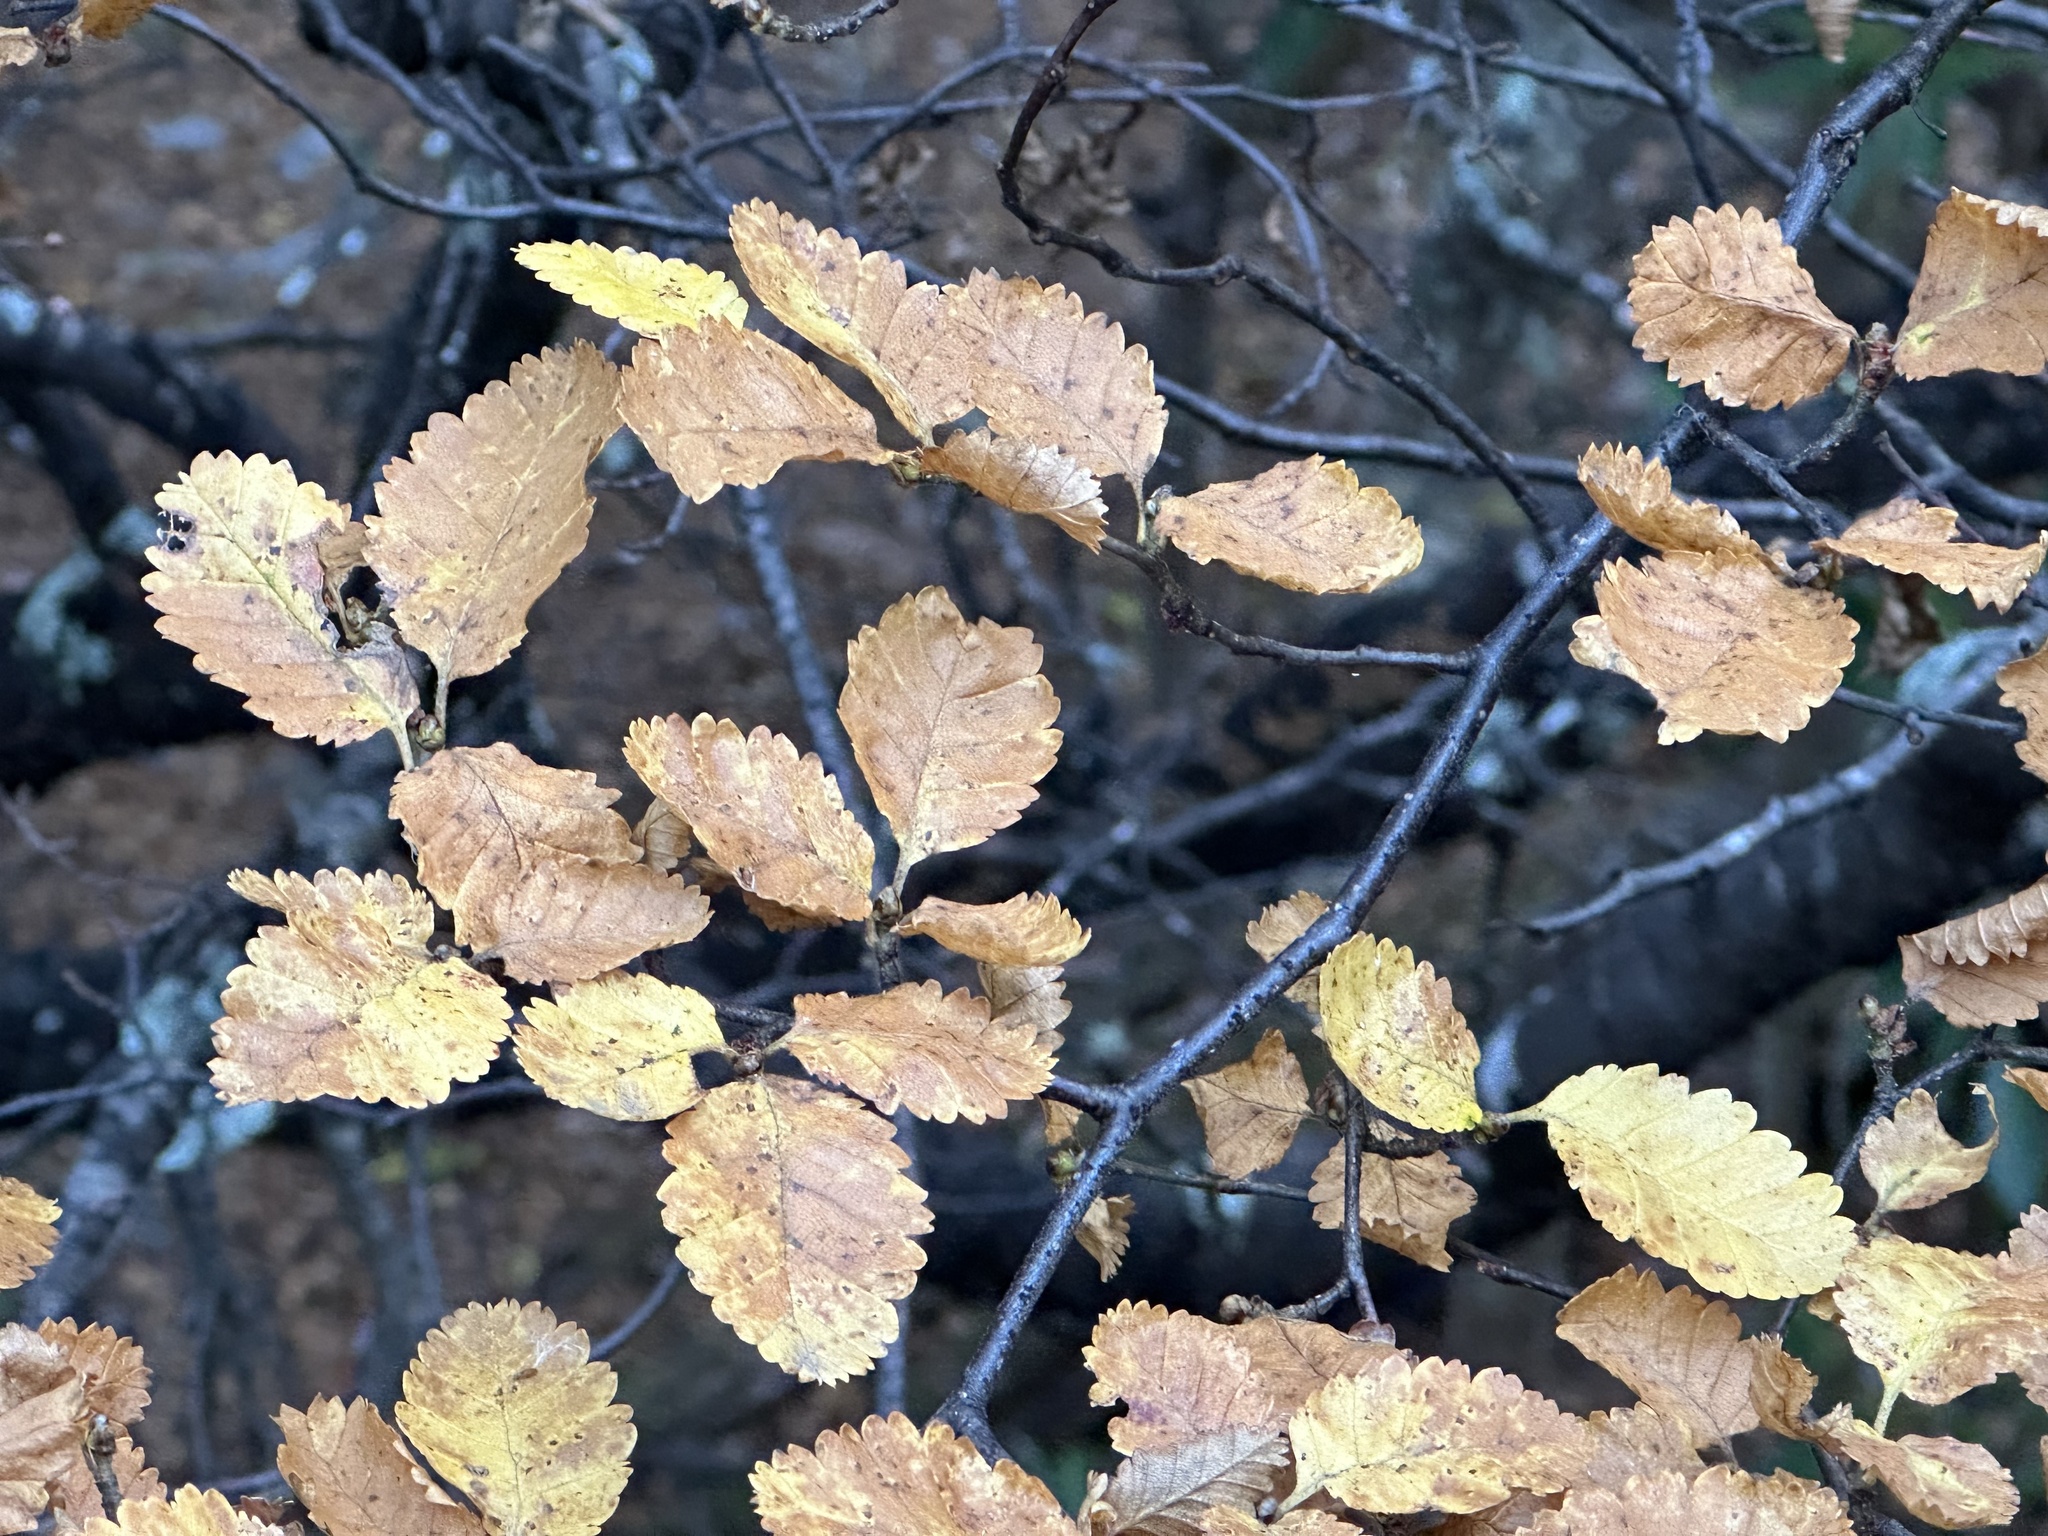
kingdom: Plantae
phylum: Tracheophyta
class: Magnoliopsida
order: Fagales
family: Nothofagaceae
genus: Nothofagus
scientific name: Nothofagus pumilio
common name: Lenga beech
